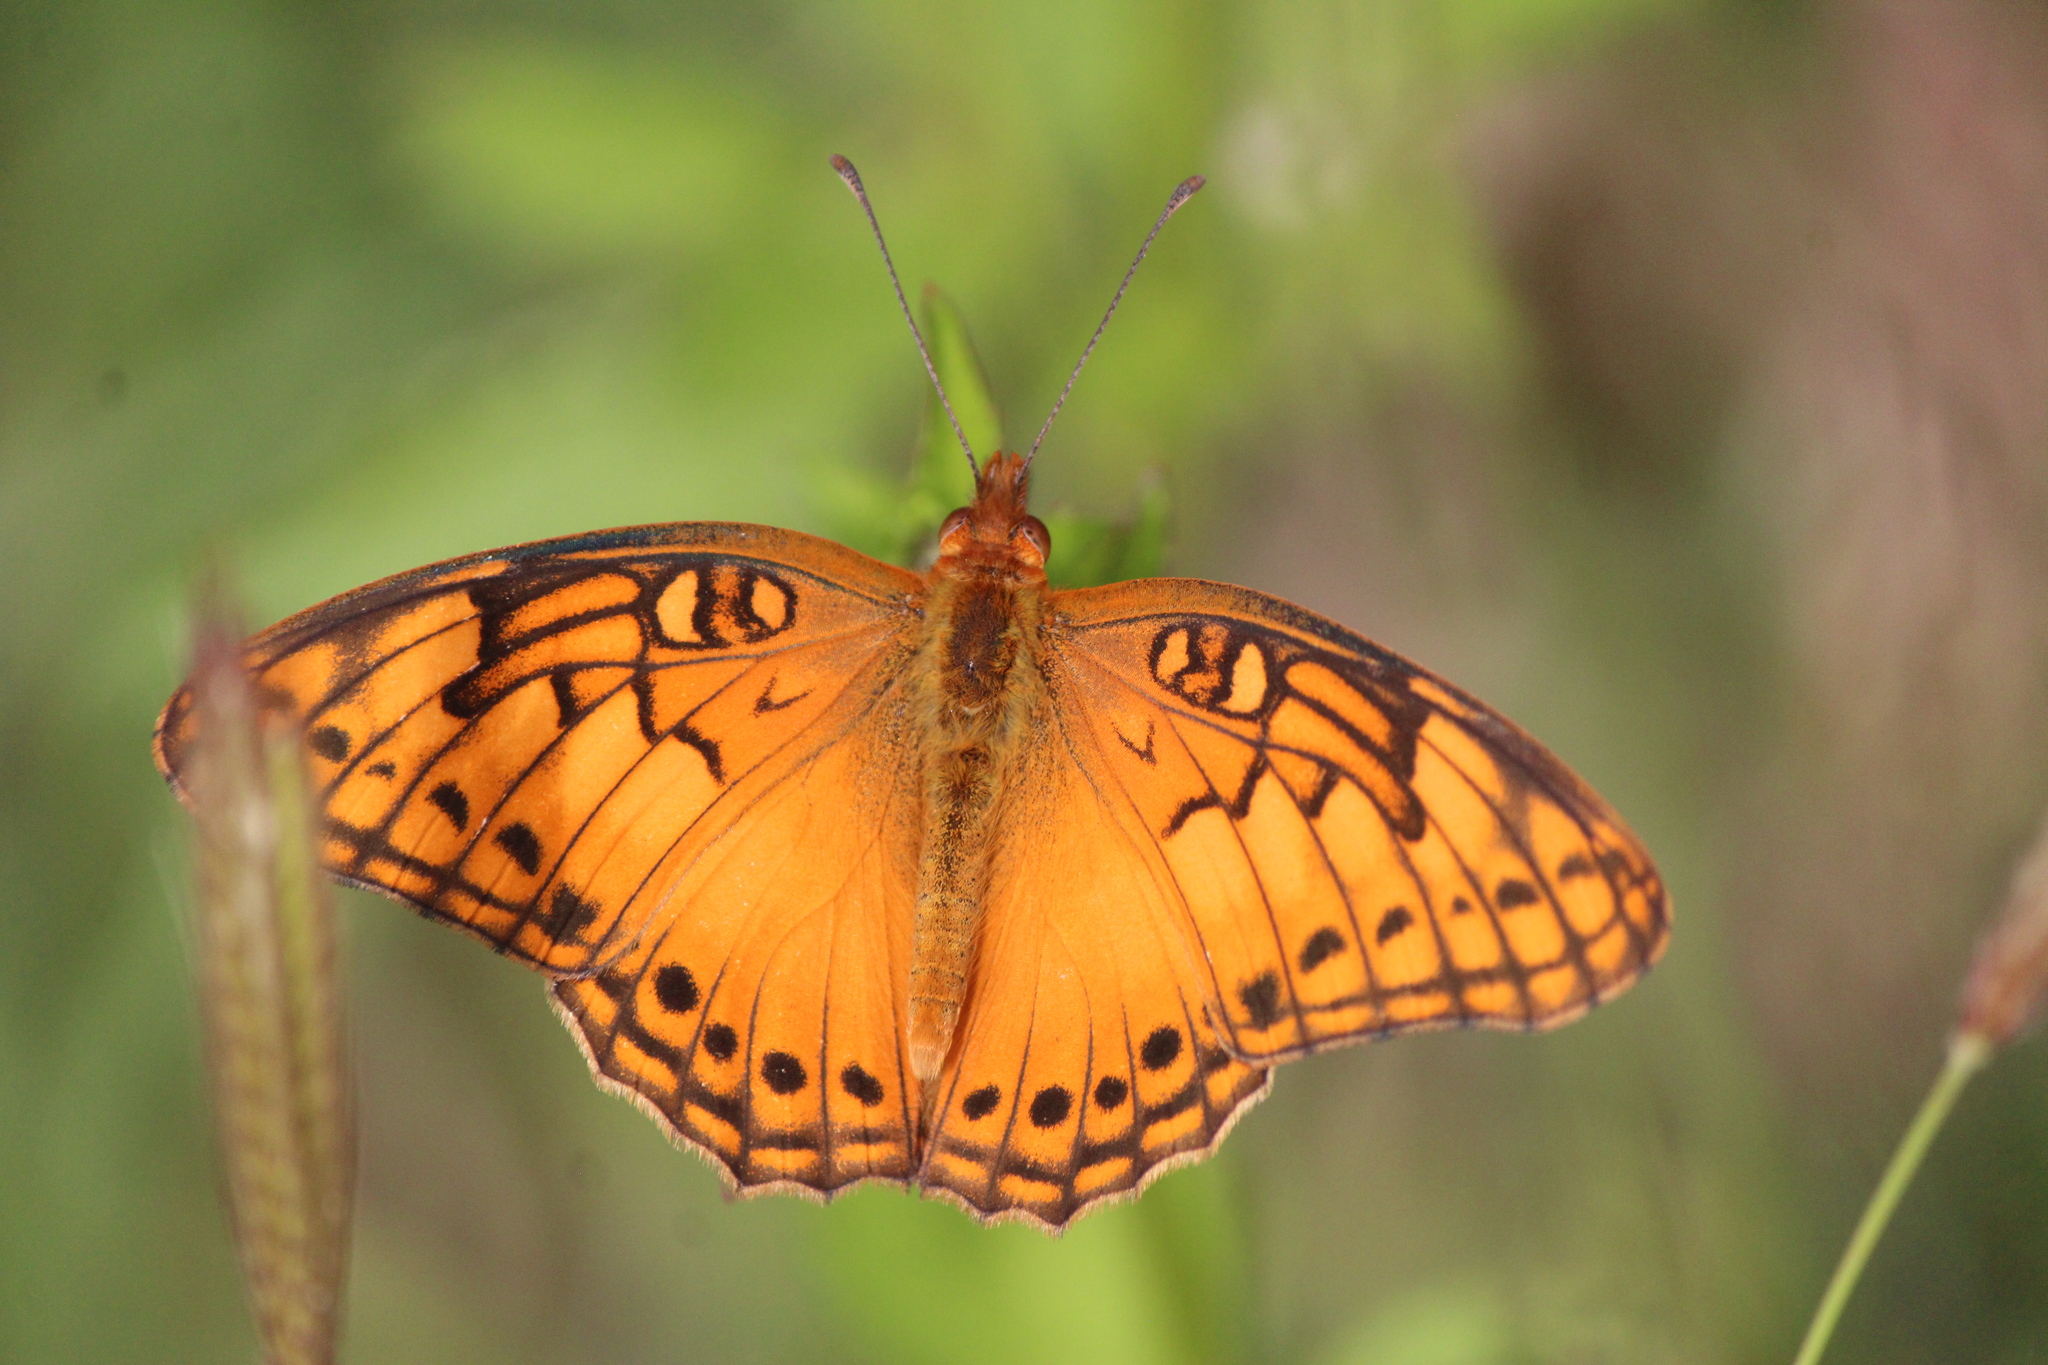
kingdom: Animalia
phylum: Arthropoda
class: Insecta
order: Lepidoptera
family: Nymphalidae
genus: Euptoieta
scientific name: Euptoieta hegesia
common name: Mexican fritillary
